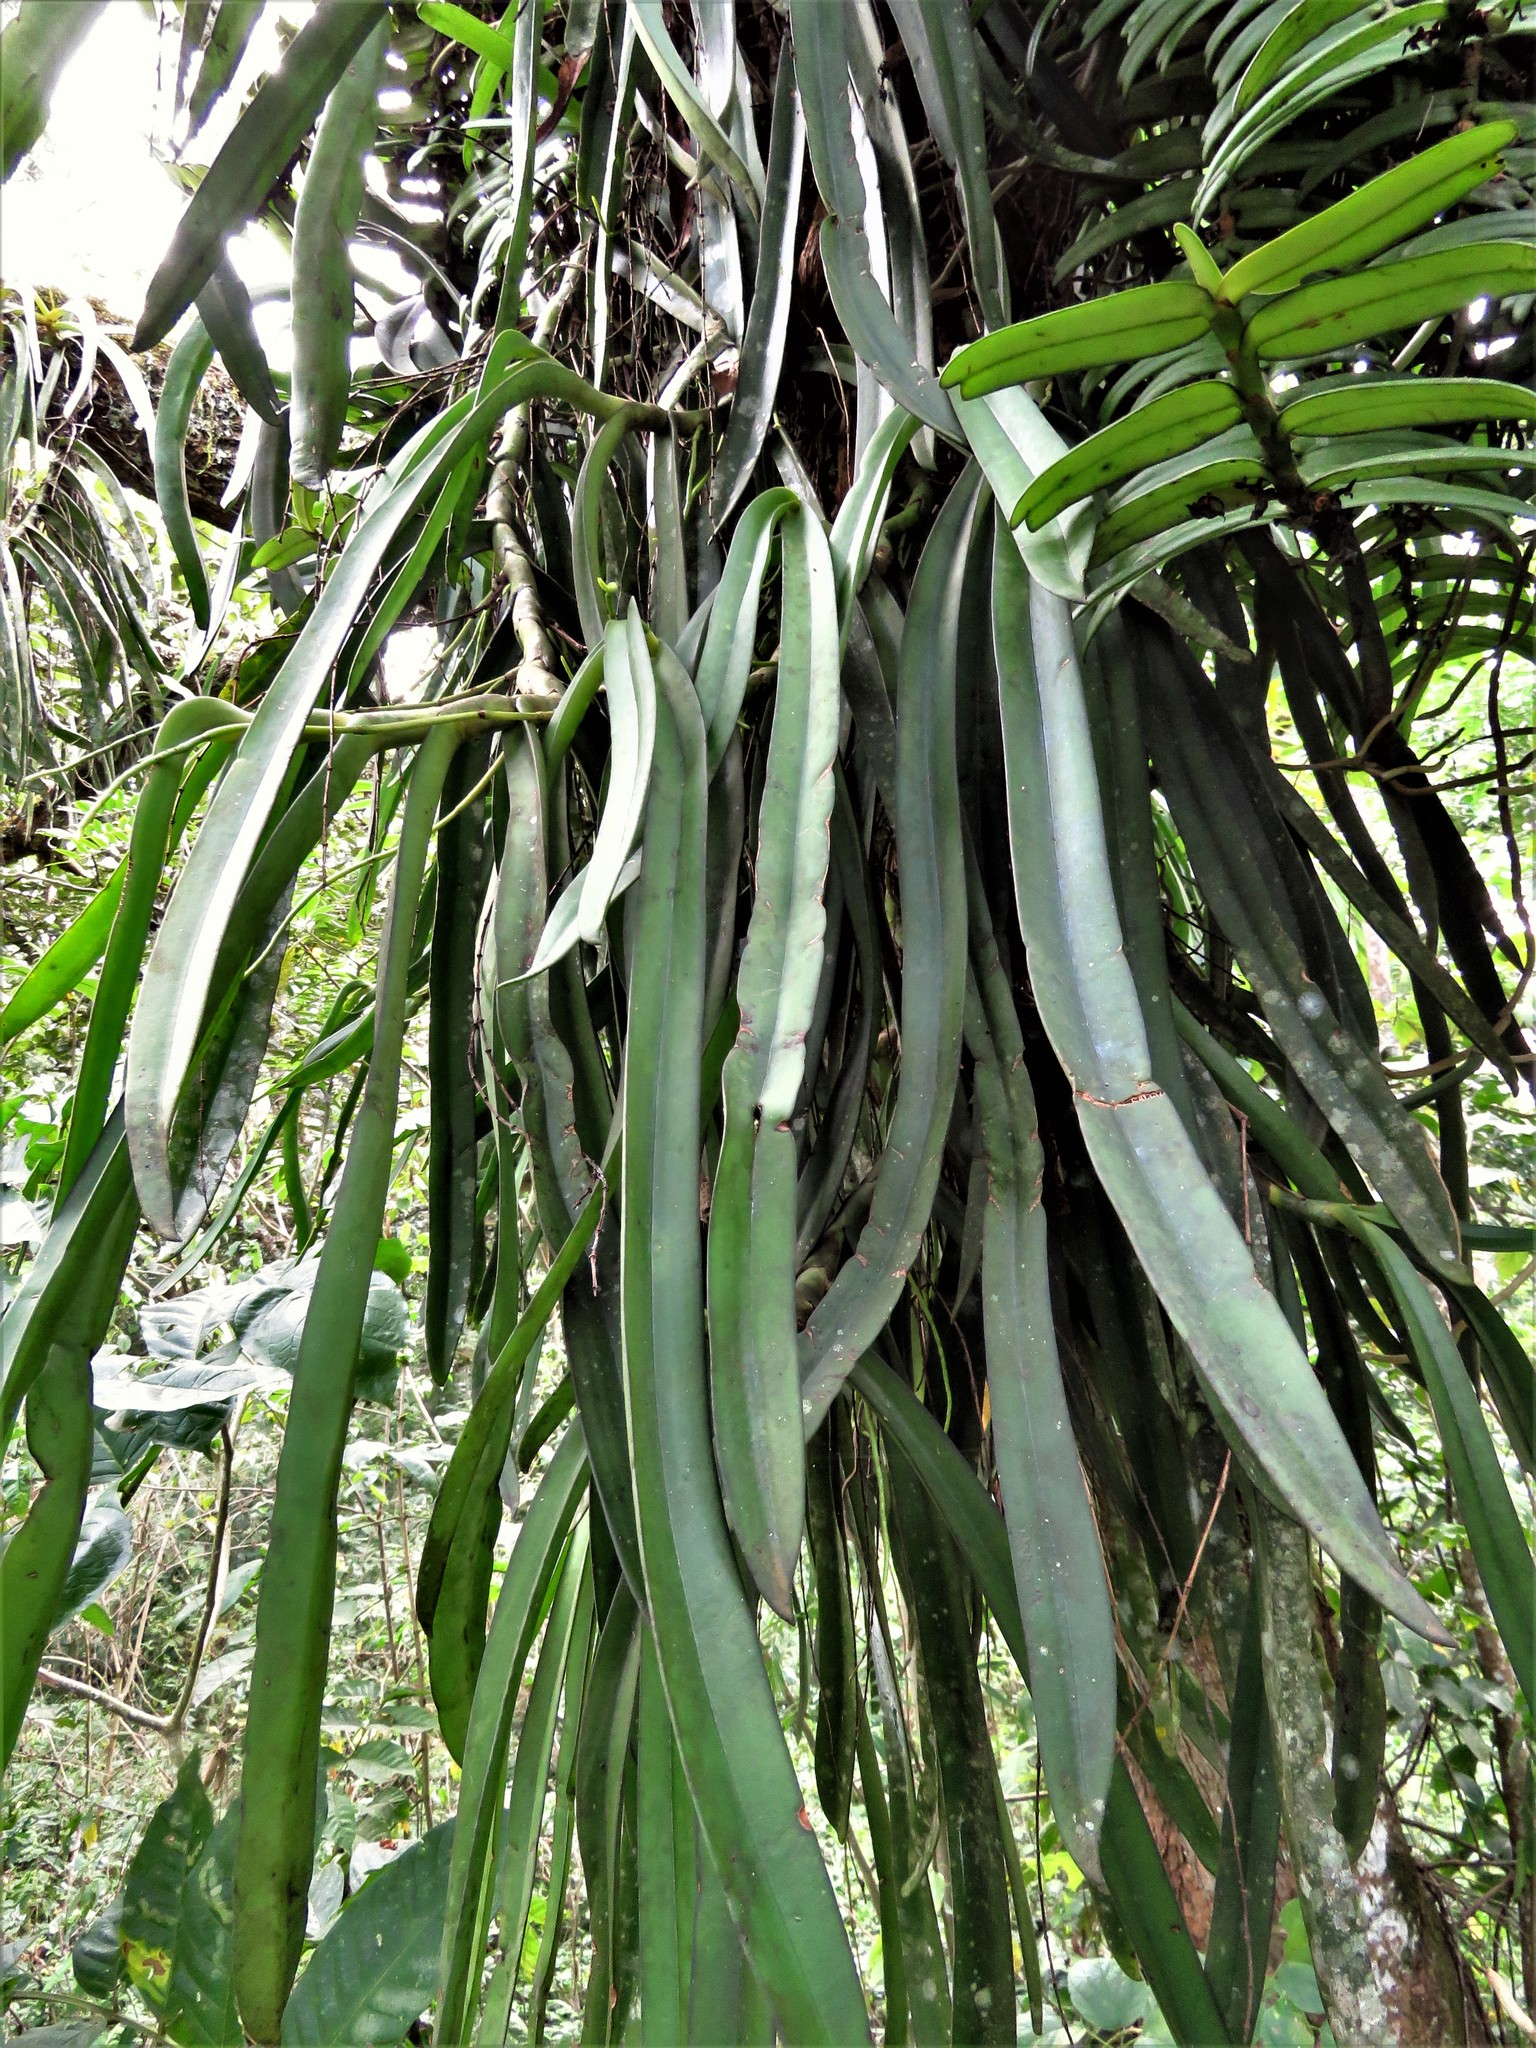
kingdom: Plantae
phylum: Tracheophyta
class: Liliopsida
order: Asparagales
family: Orchidaceae
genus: Diaphananthe
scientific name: Diaphananthe fragrantissima
